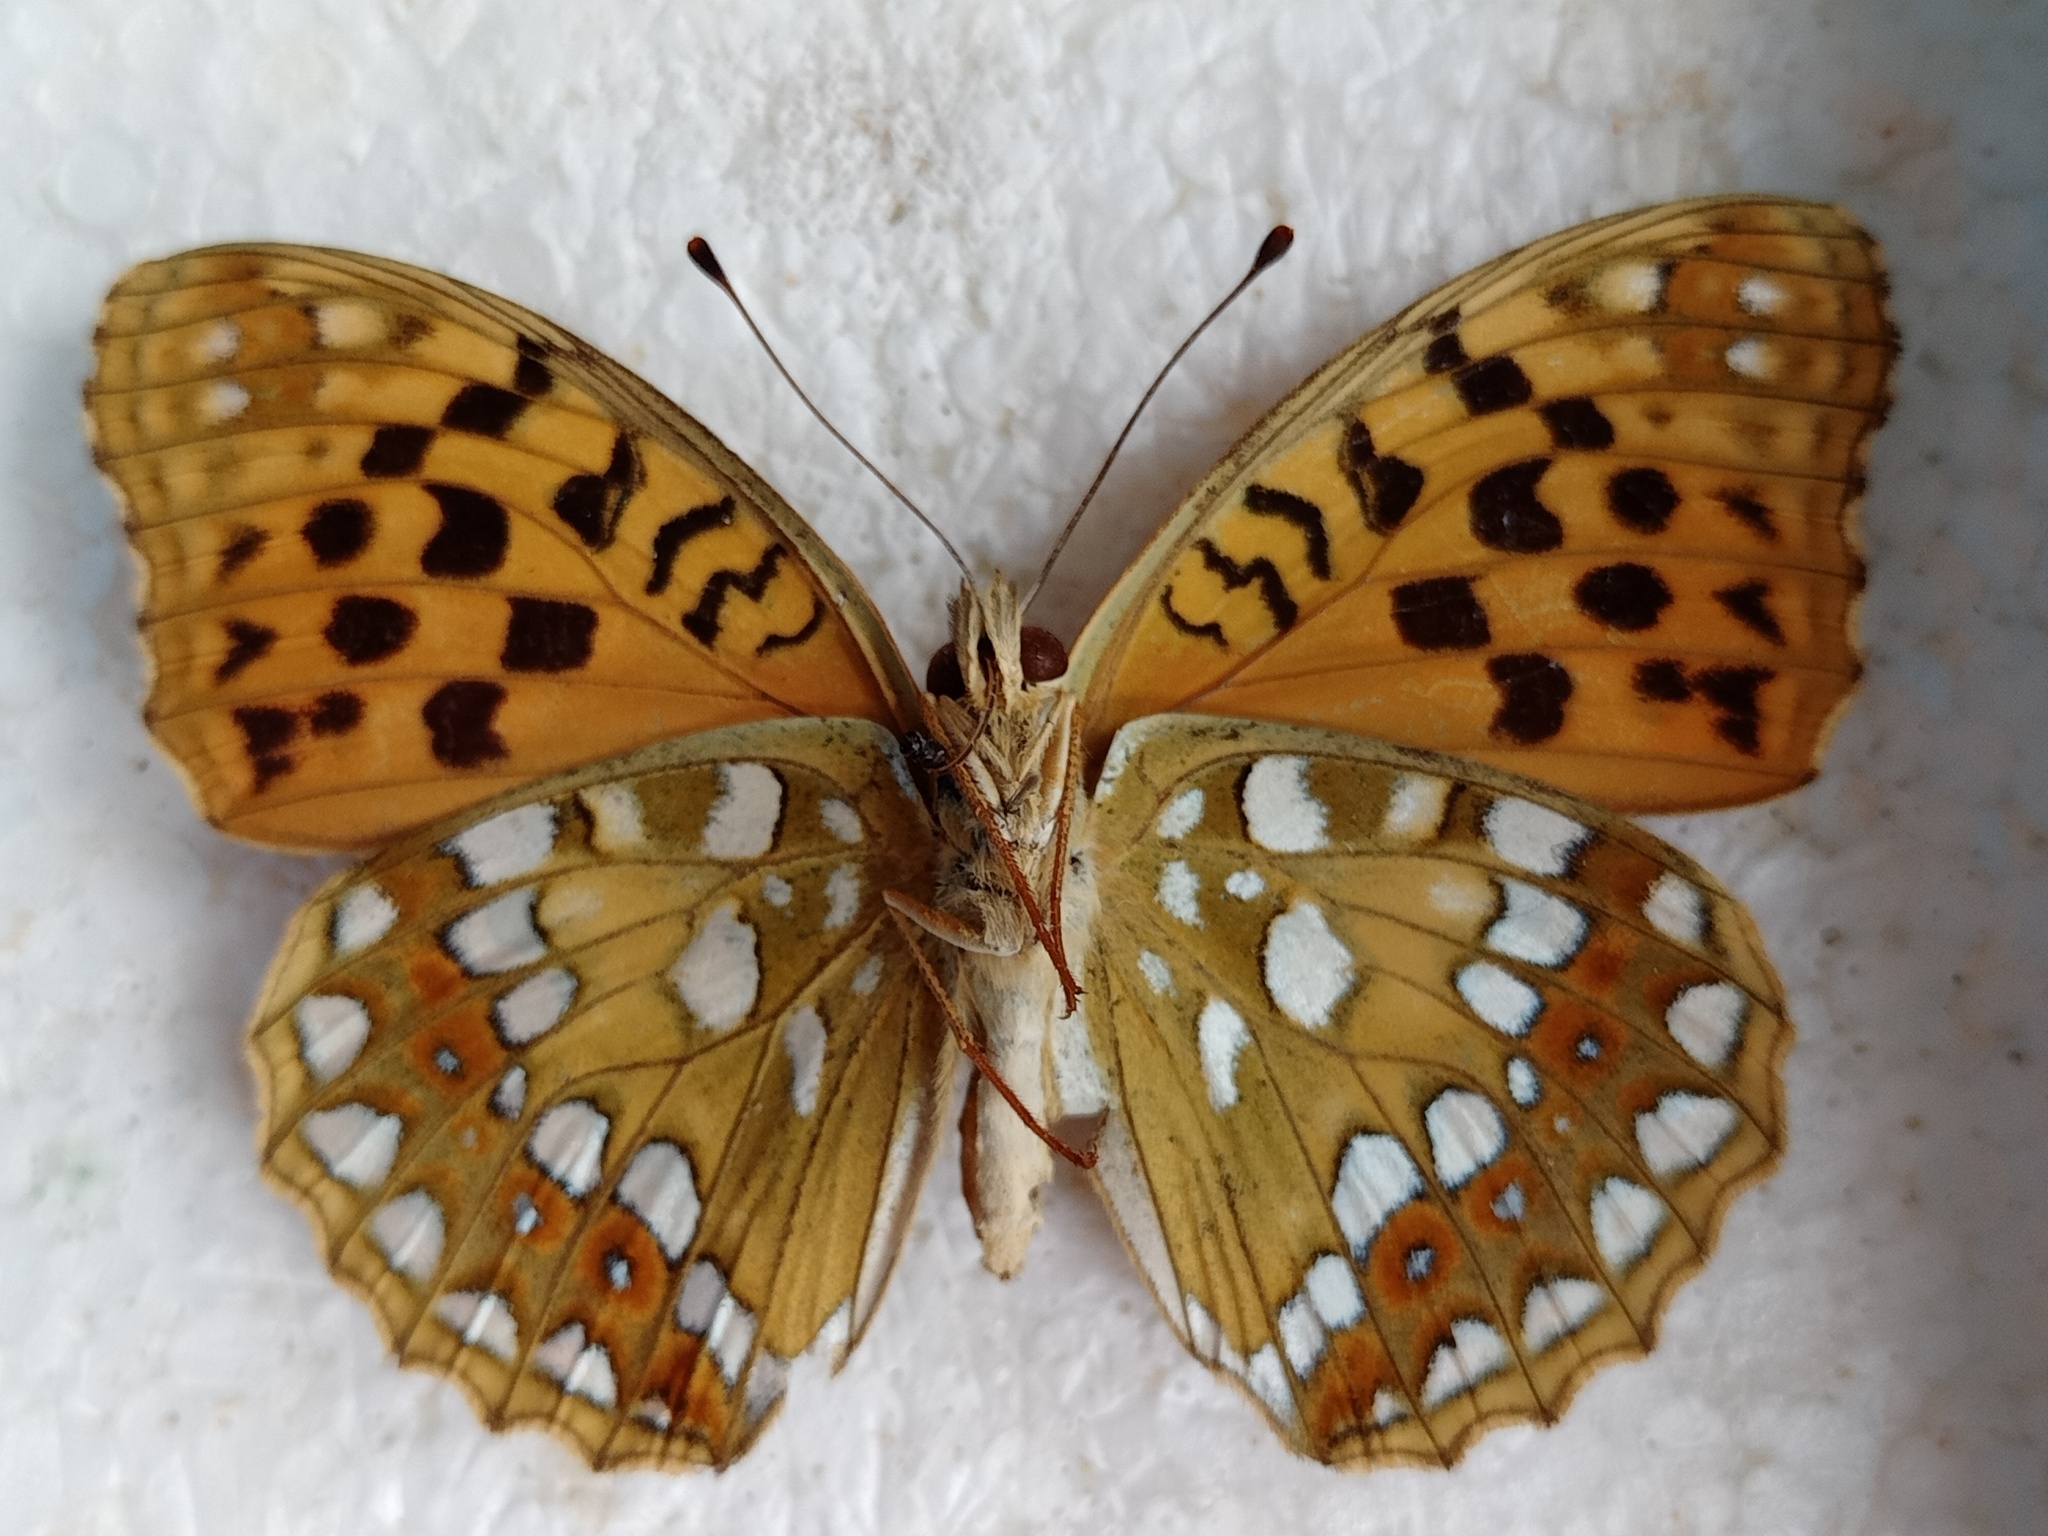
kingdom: Animalia
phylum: Arthropoda
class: Insecta
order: Lepidoptera
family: Nymphalidae
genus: Fabriciana
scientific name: Fabriciana adippe
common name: High brown fritillary
